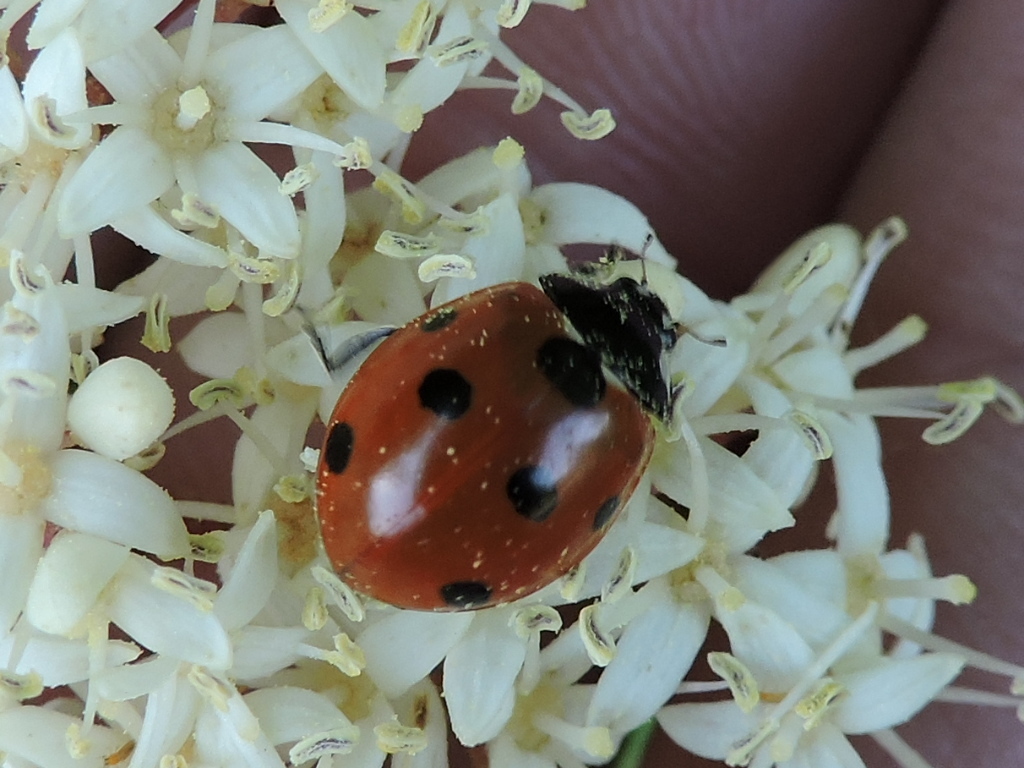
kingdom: Animalia
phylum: Arthropoda
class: Insecta
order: Coleoptera
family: Coccinellidae
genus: Coccinella
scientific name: Coccinella septempunctata
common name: Sevenspotted lady beetle
